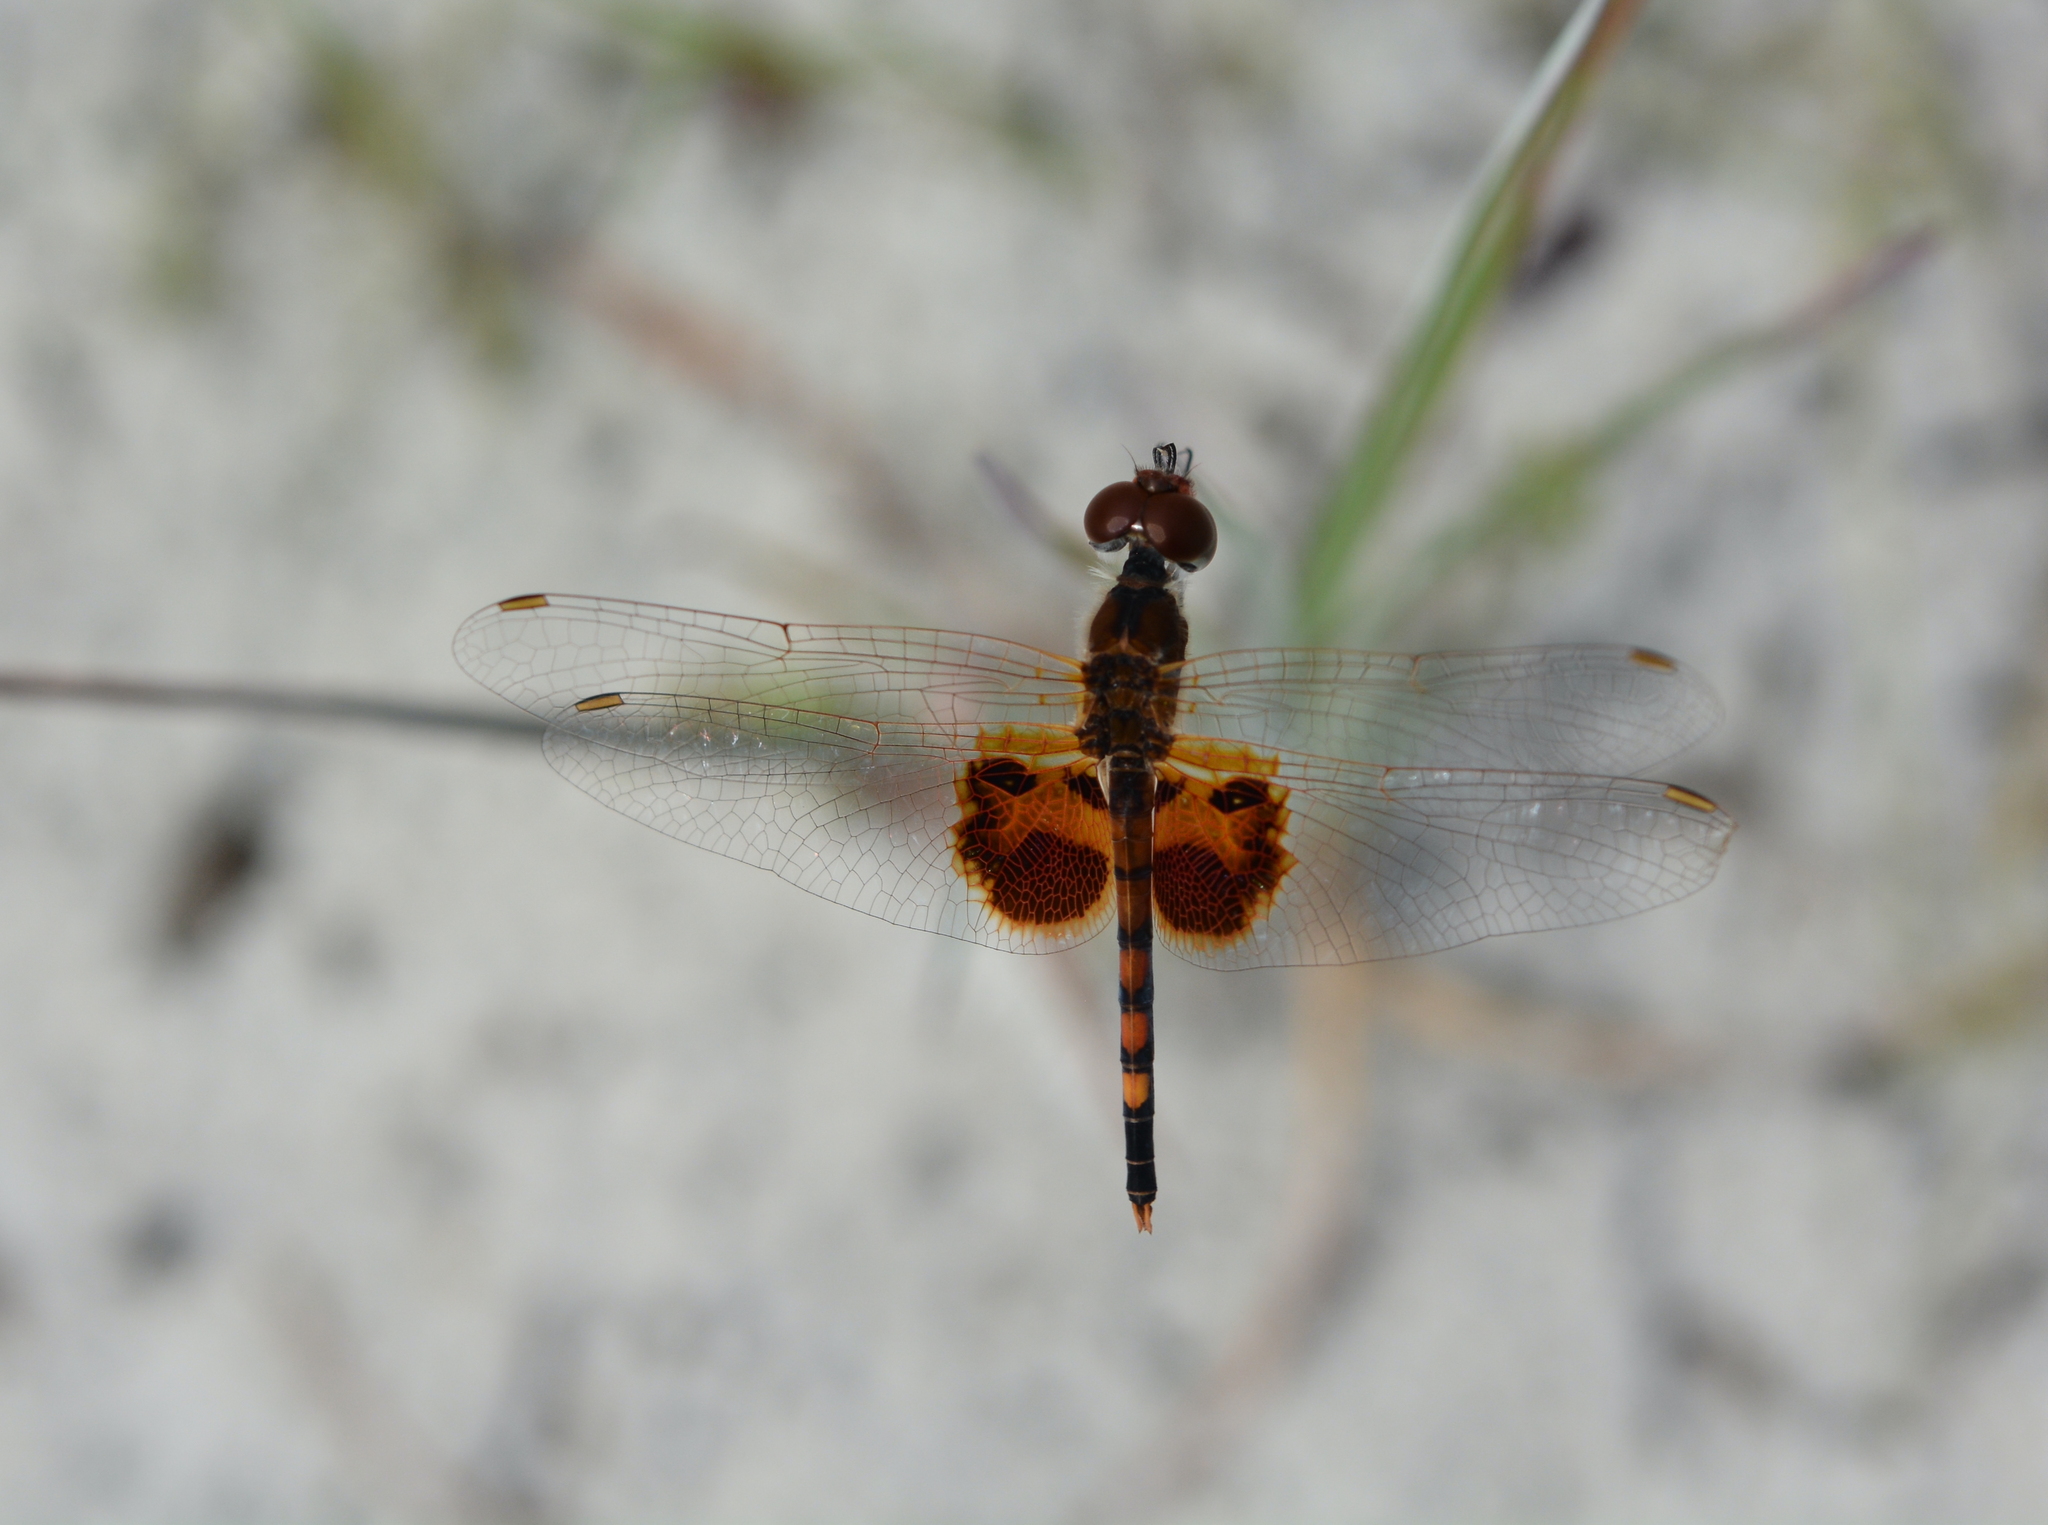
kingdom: Animalia
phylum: Arthropoda
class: Insecta
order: Odonata
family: Libellulidae
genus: Celithemis
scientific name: Celithemis amanda
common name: Amanda's pennant
